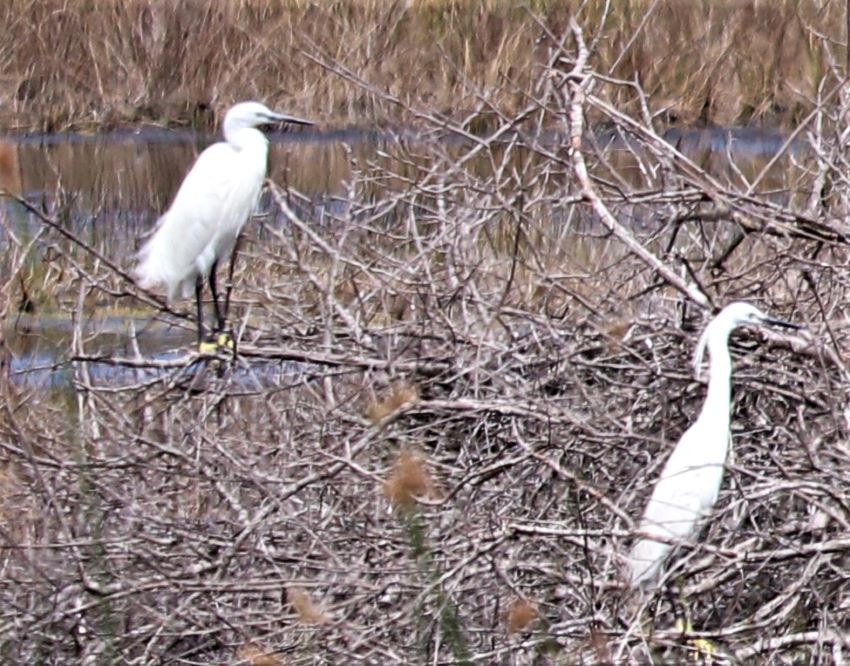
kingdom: Animalia
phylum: Chordata
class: Aves
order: Pelecaniformes
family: Ardeidae
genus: Egretta
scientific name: Egretta garzetta
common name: Little egret
